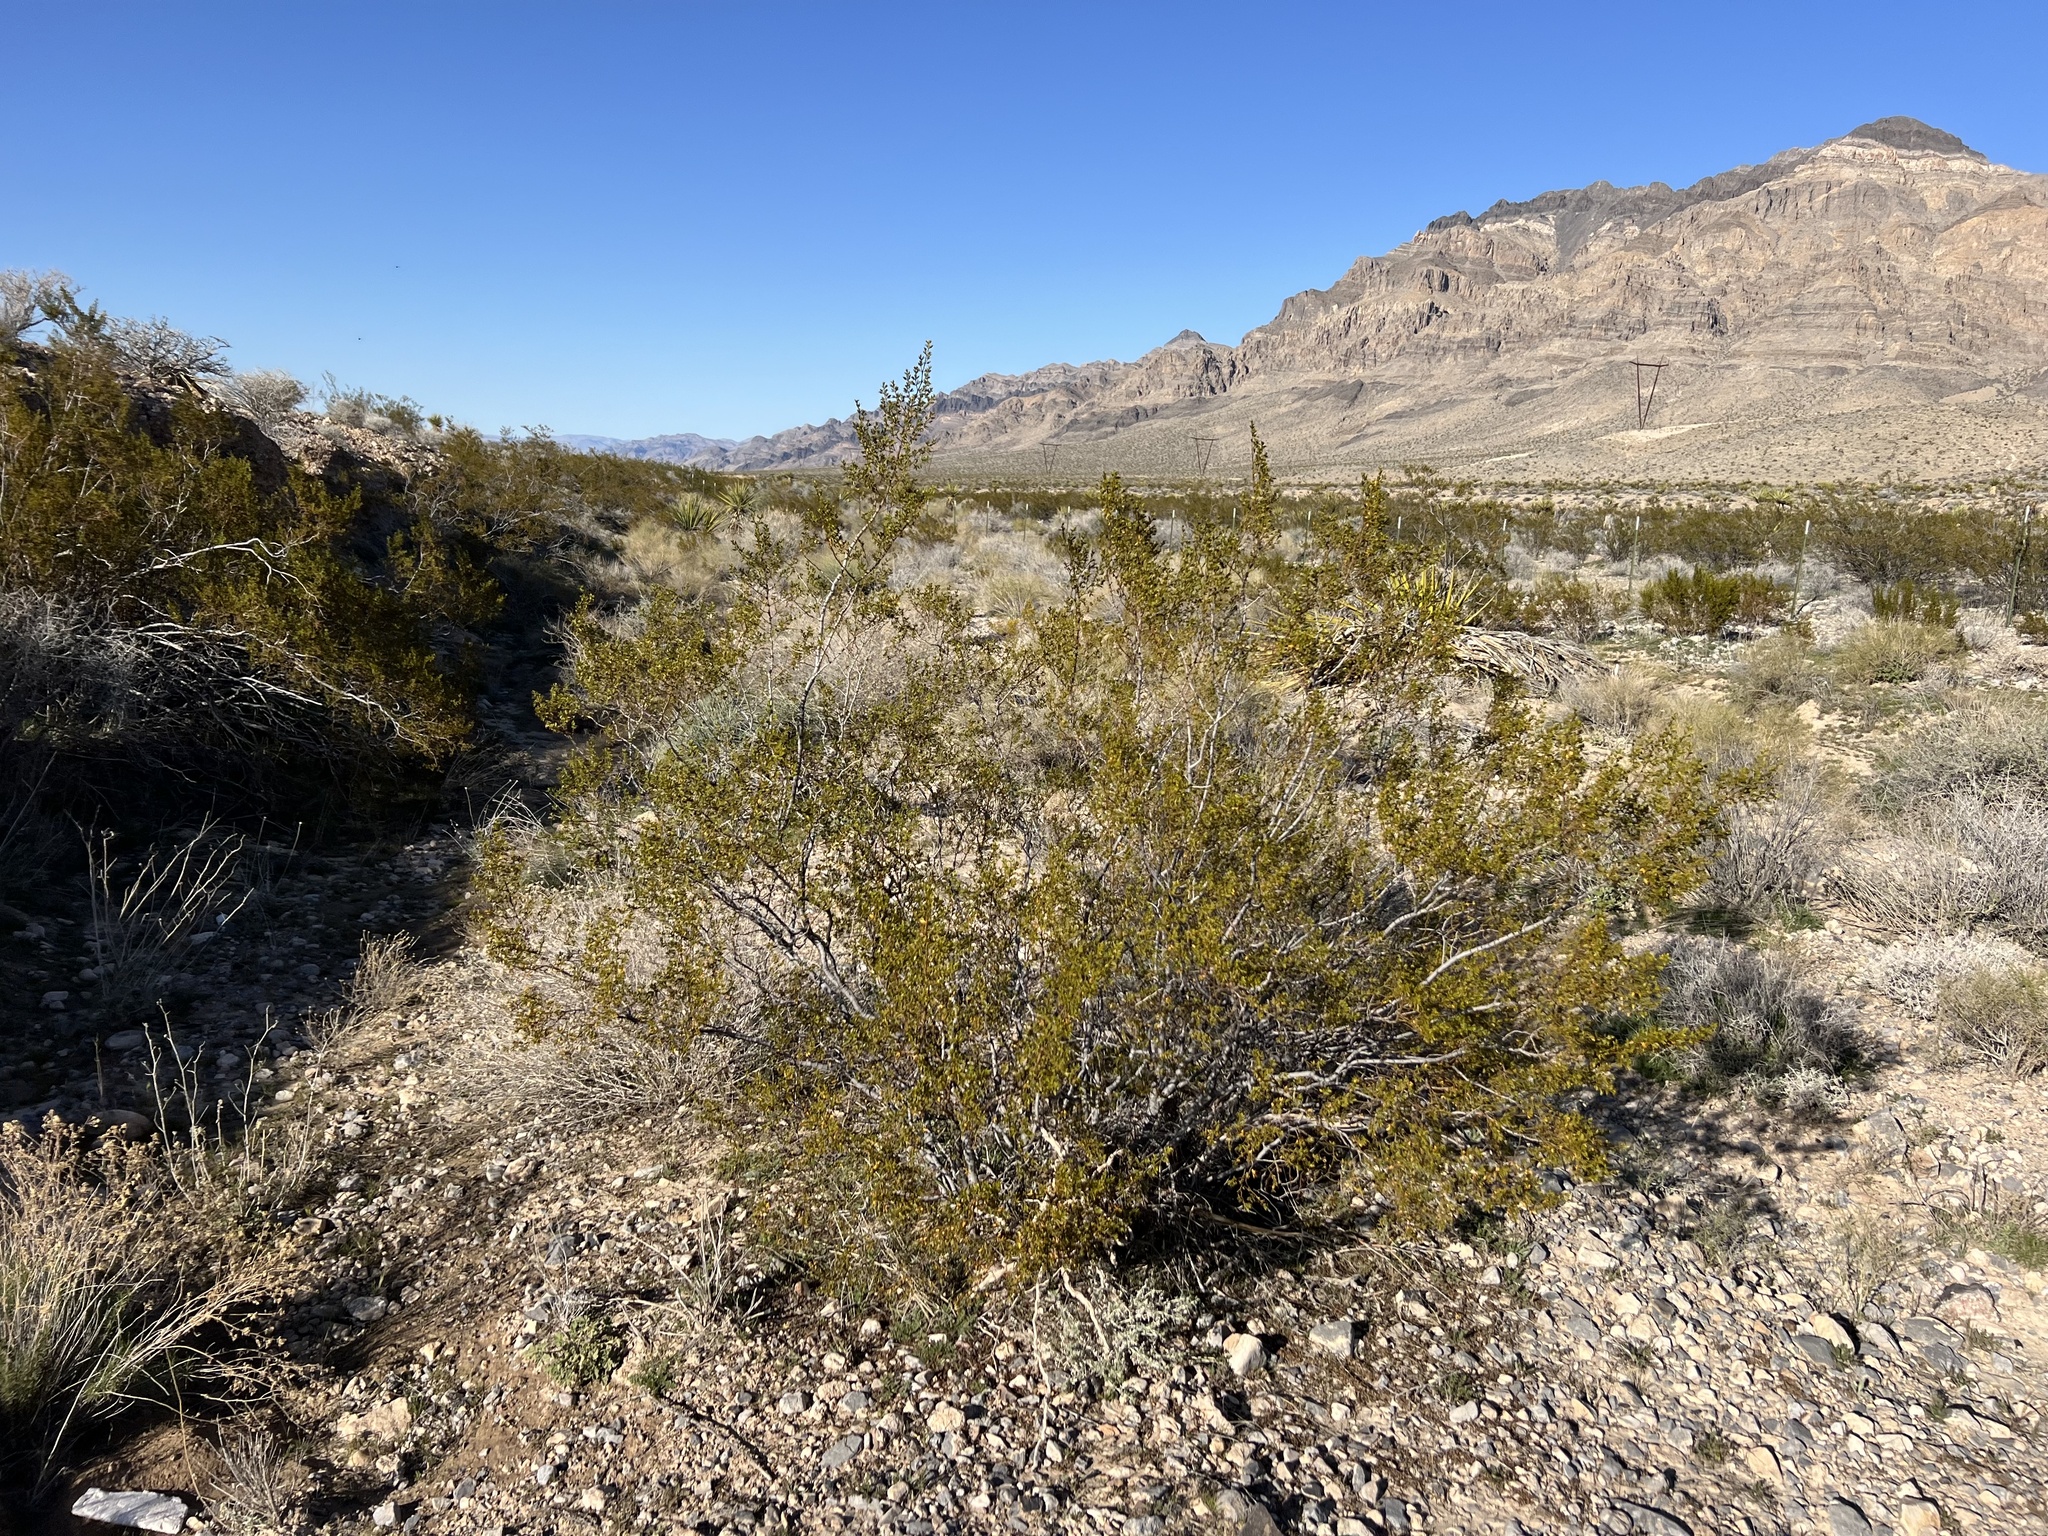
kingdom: Plantae
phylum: Tracheophyta
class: Magnoliopsida
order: Zygophyllales
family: Zygophyllaceae
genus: Larrea
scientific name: Larrea tridentata
